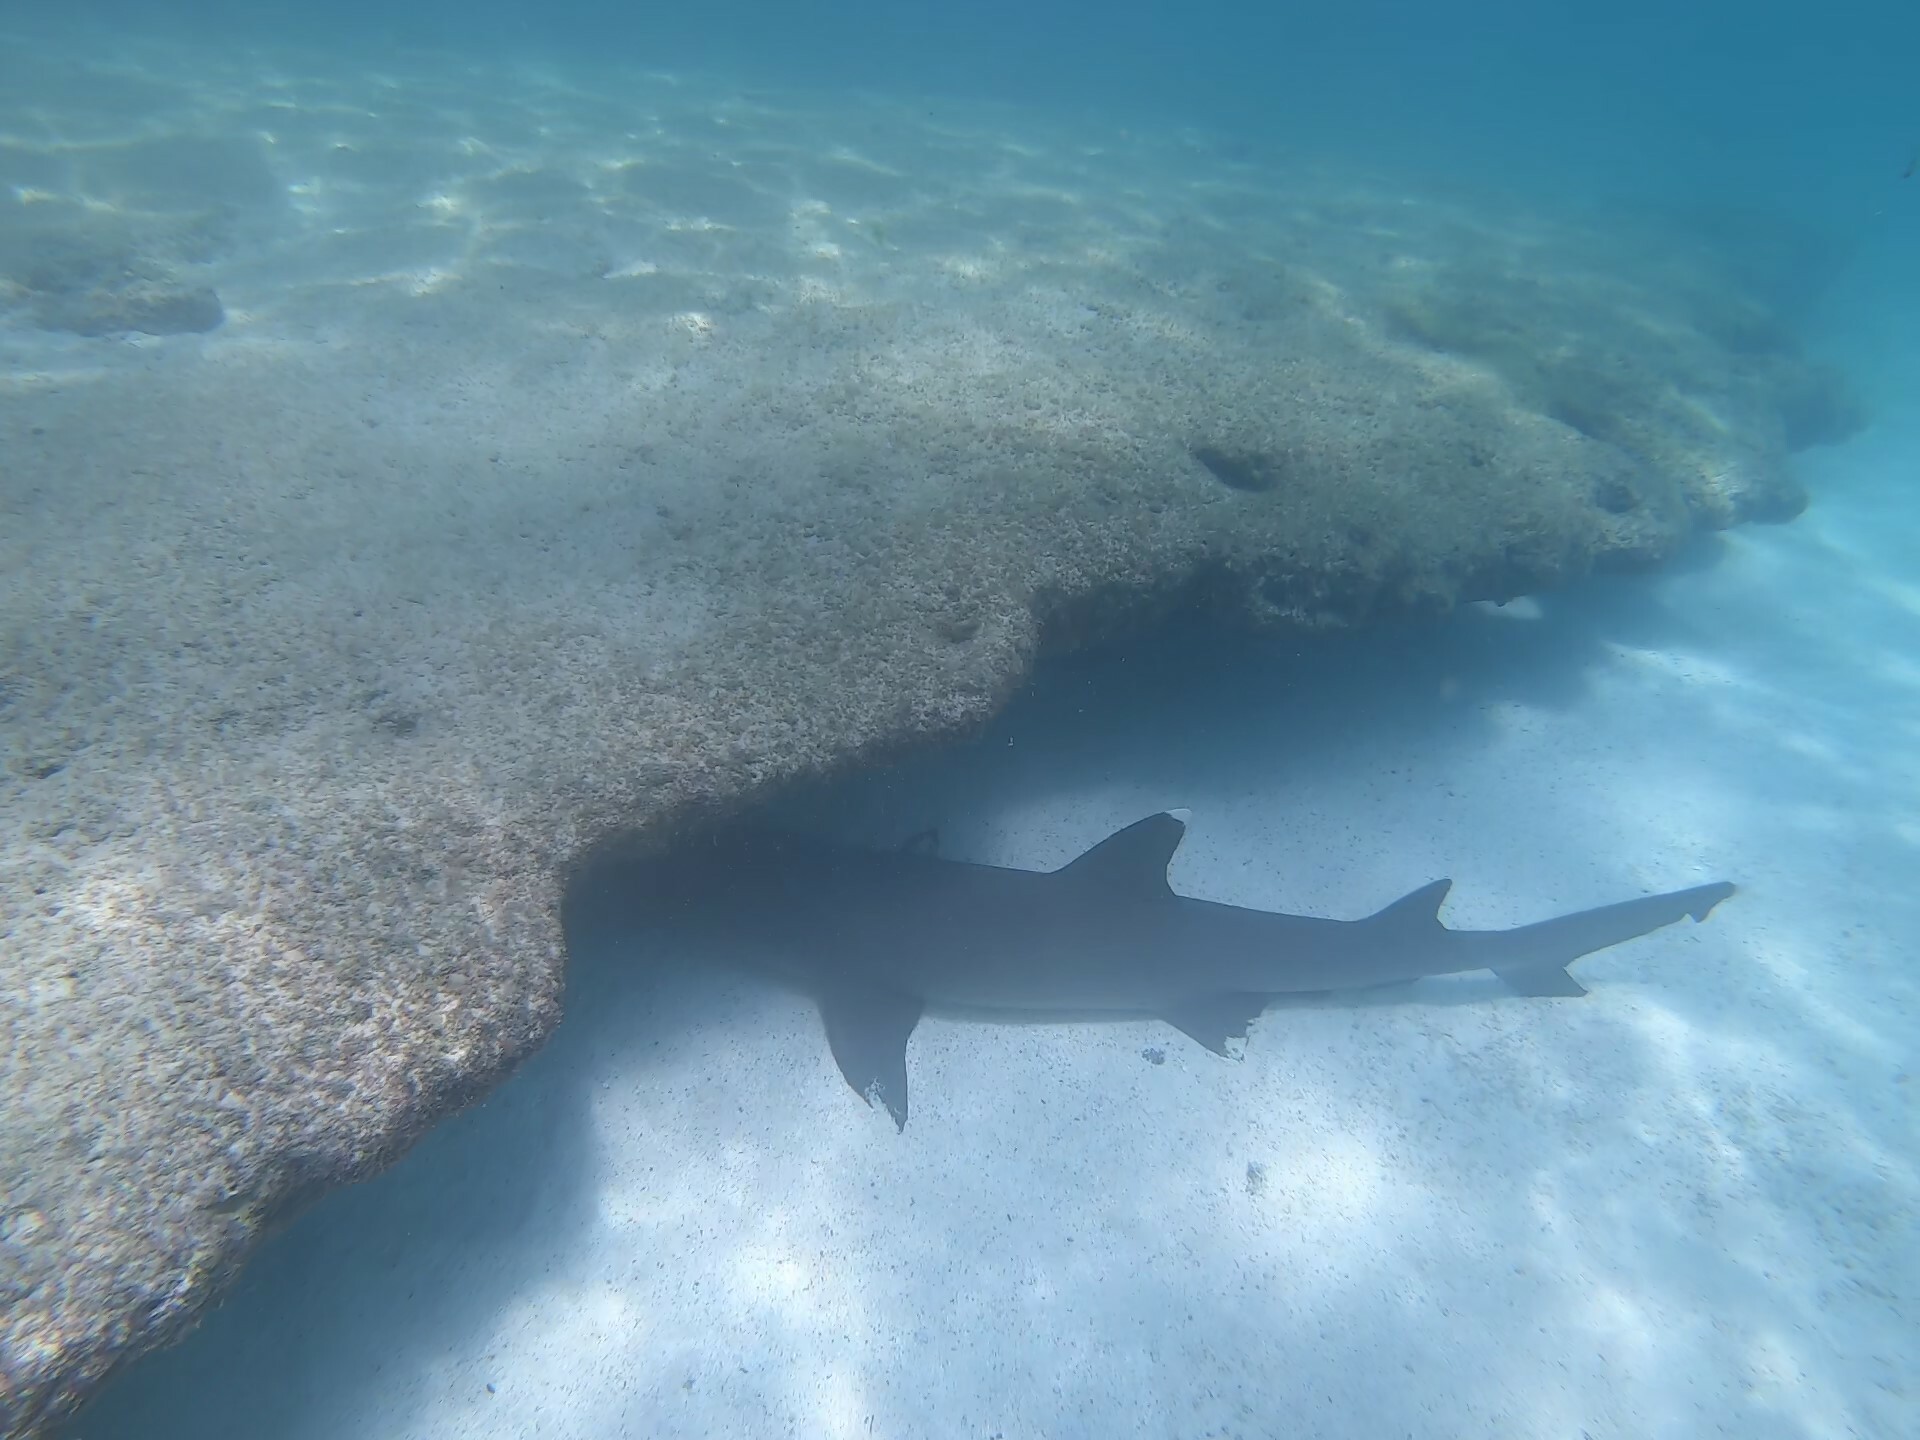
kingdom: Animalia
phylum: Chordata
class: Elasmobranchii
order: Carcharhiniformes
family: Carcharhinidae
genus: Triaenodon
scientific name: Triaenodon obesus
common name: Whitetip reef shark
